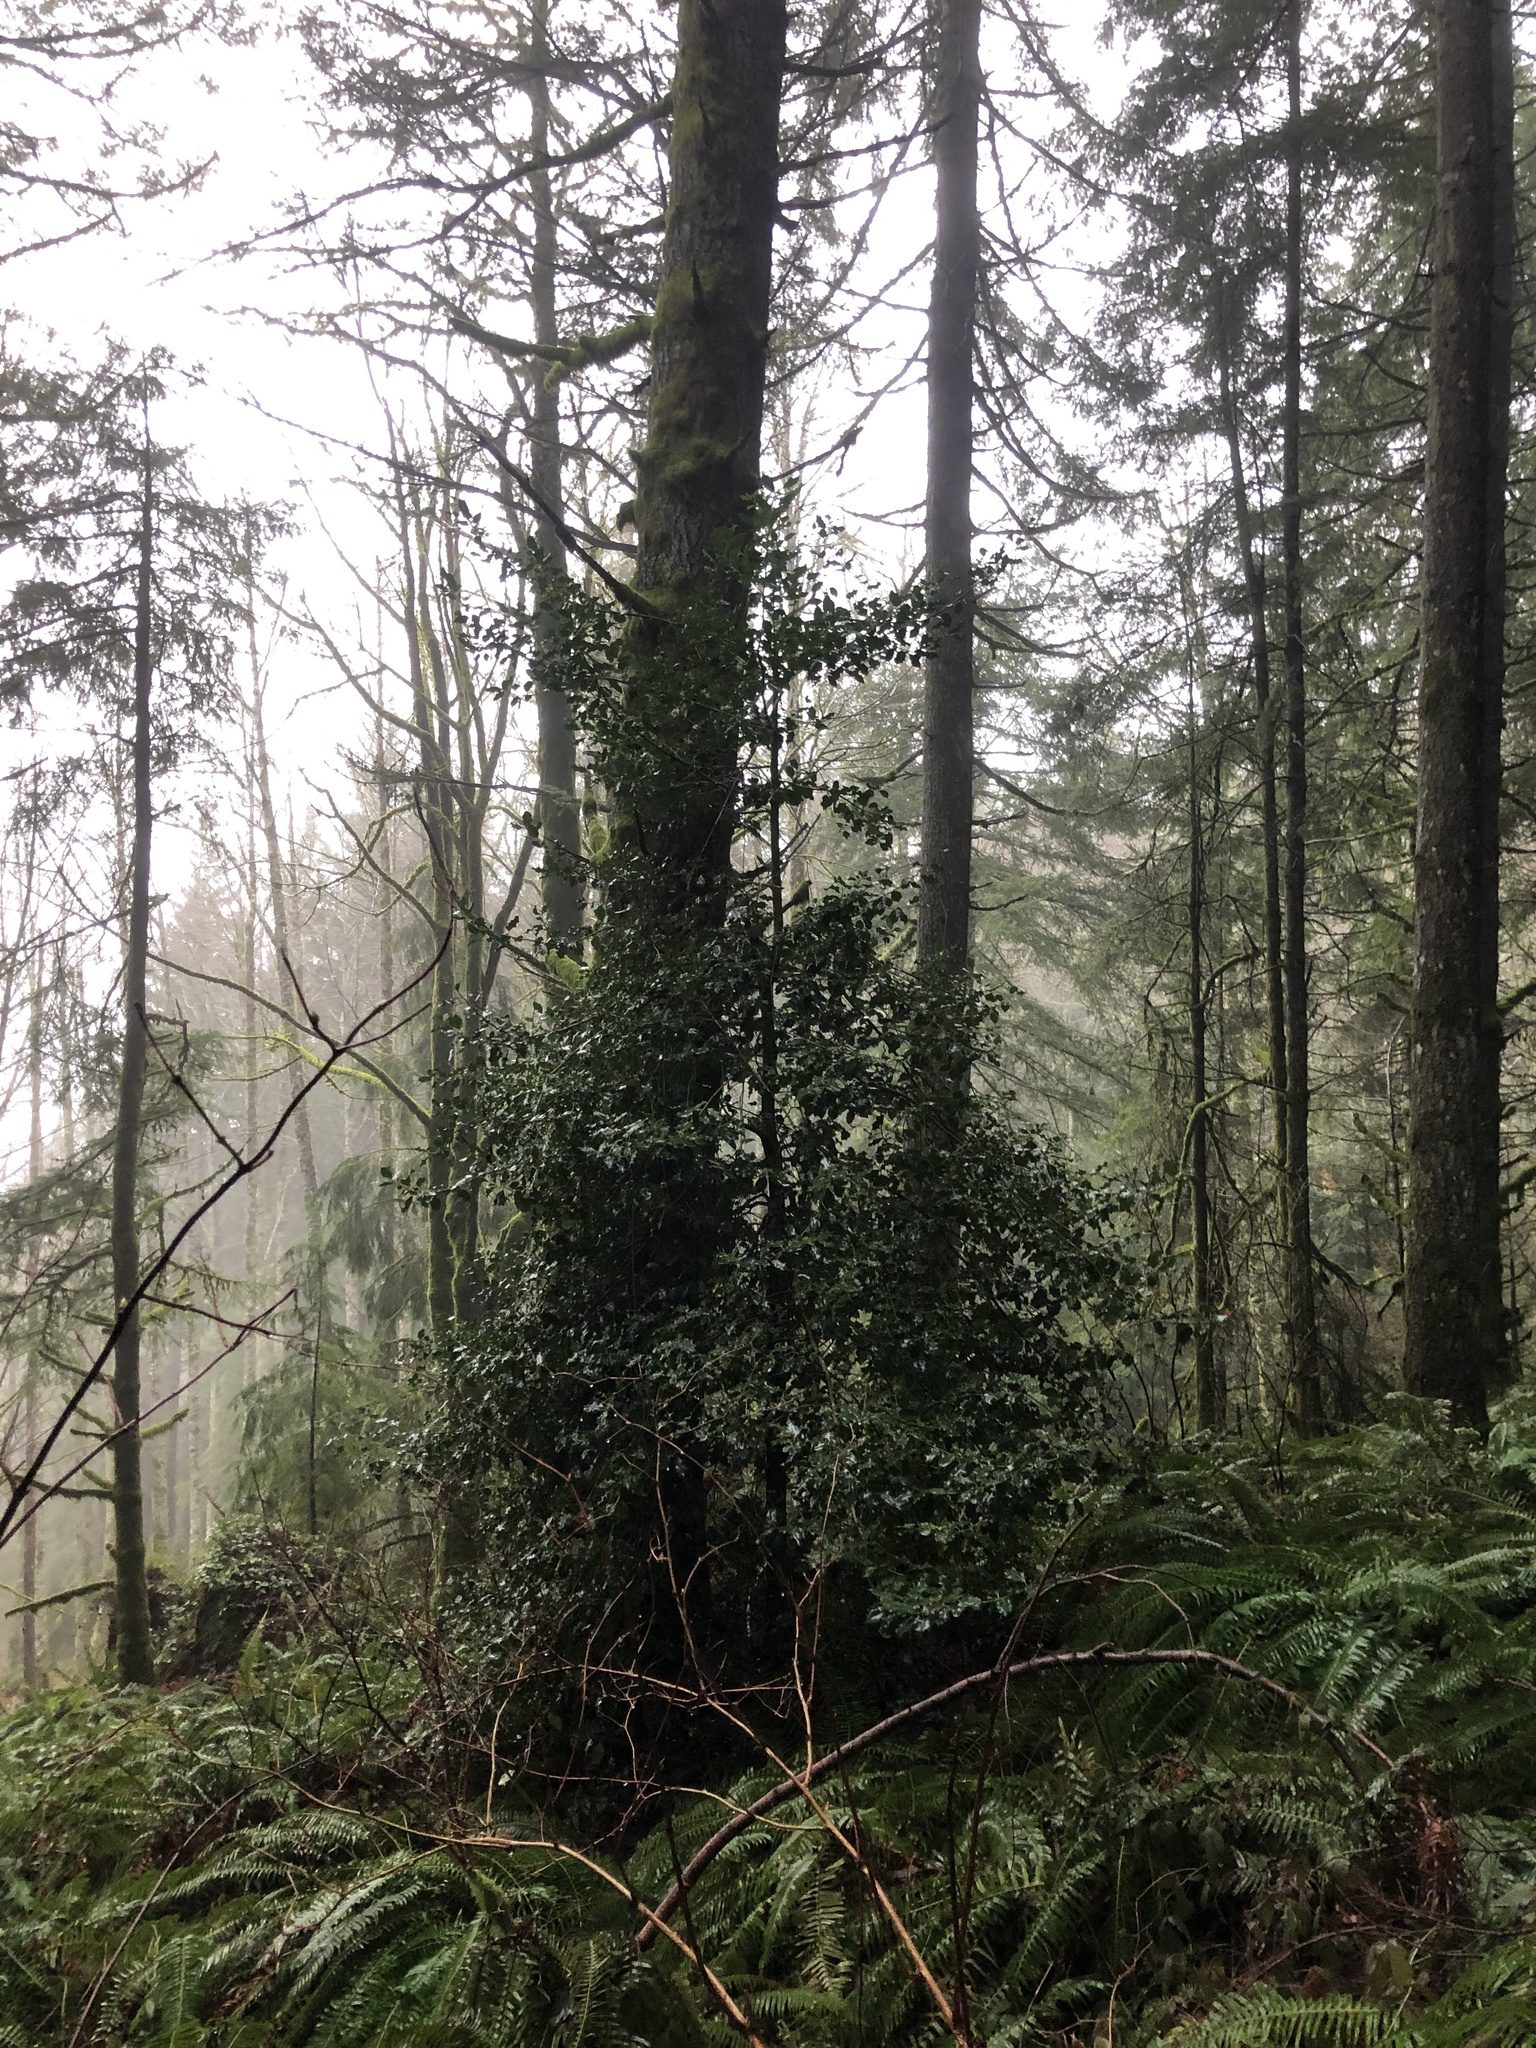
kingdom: Plantae
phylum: Tracheophyta
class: Magnoliopsida
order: Aquifoliales
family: Aquifoliaceae
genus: Ilex
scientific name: Ilex aquifolium
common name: English holly
